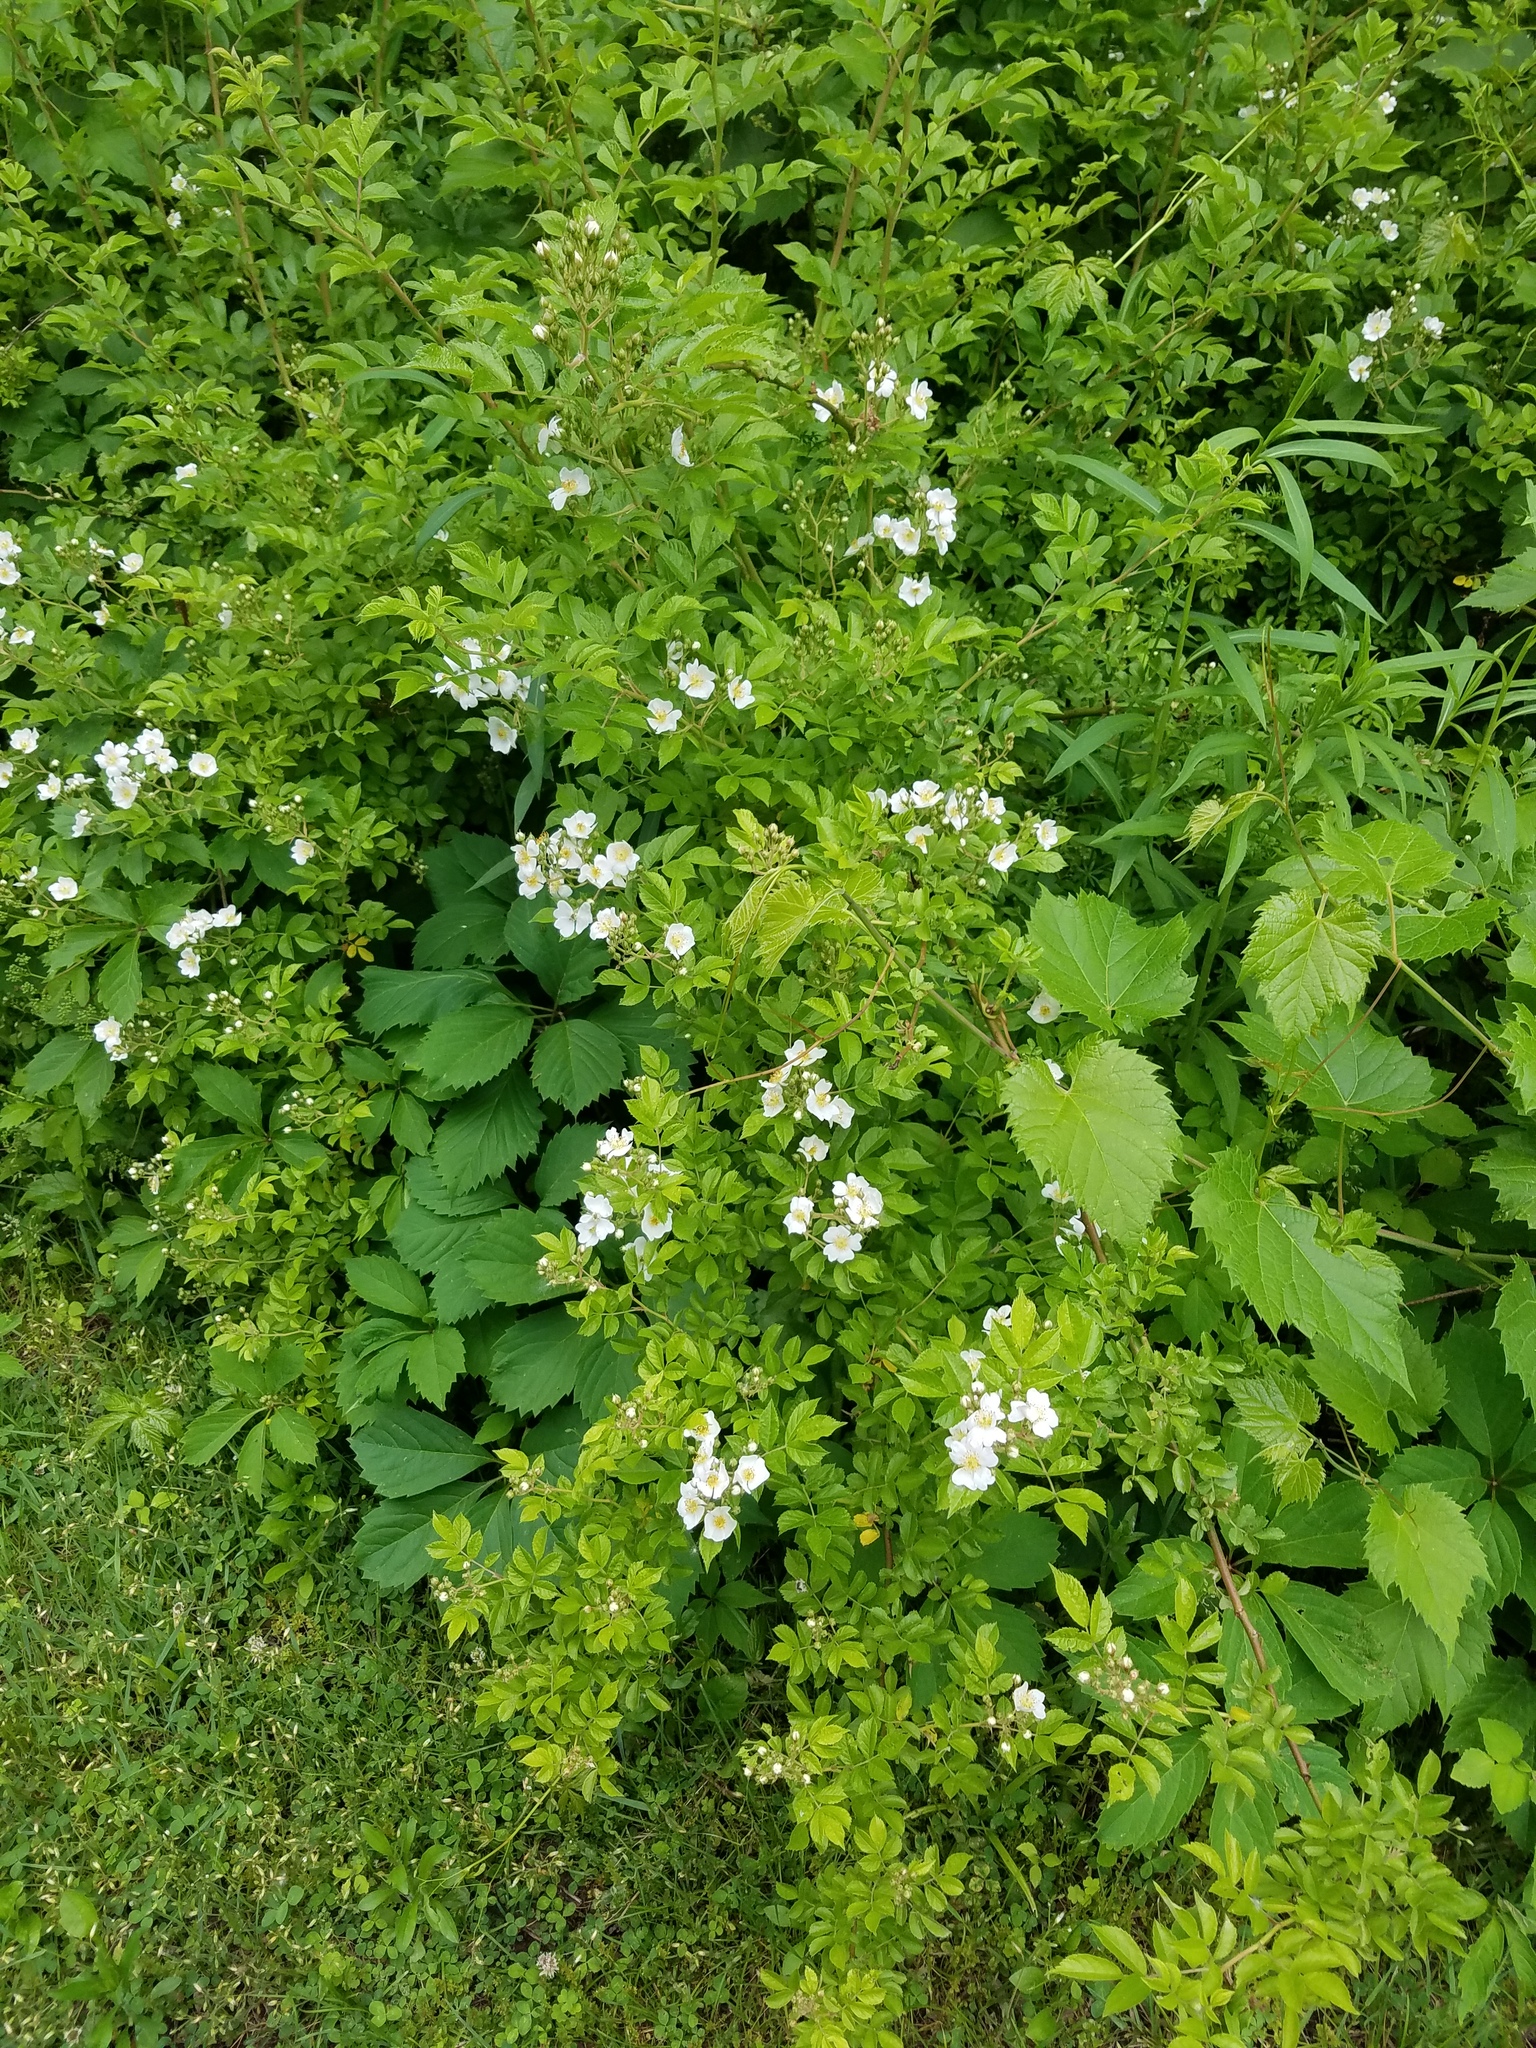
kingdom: Plantae
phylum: Tracheophyta
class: Magnoliopsida
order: Rosales
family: Rosaceae
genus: Rosa
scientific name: Rosa multiflora
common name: Multiflora rose
